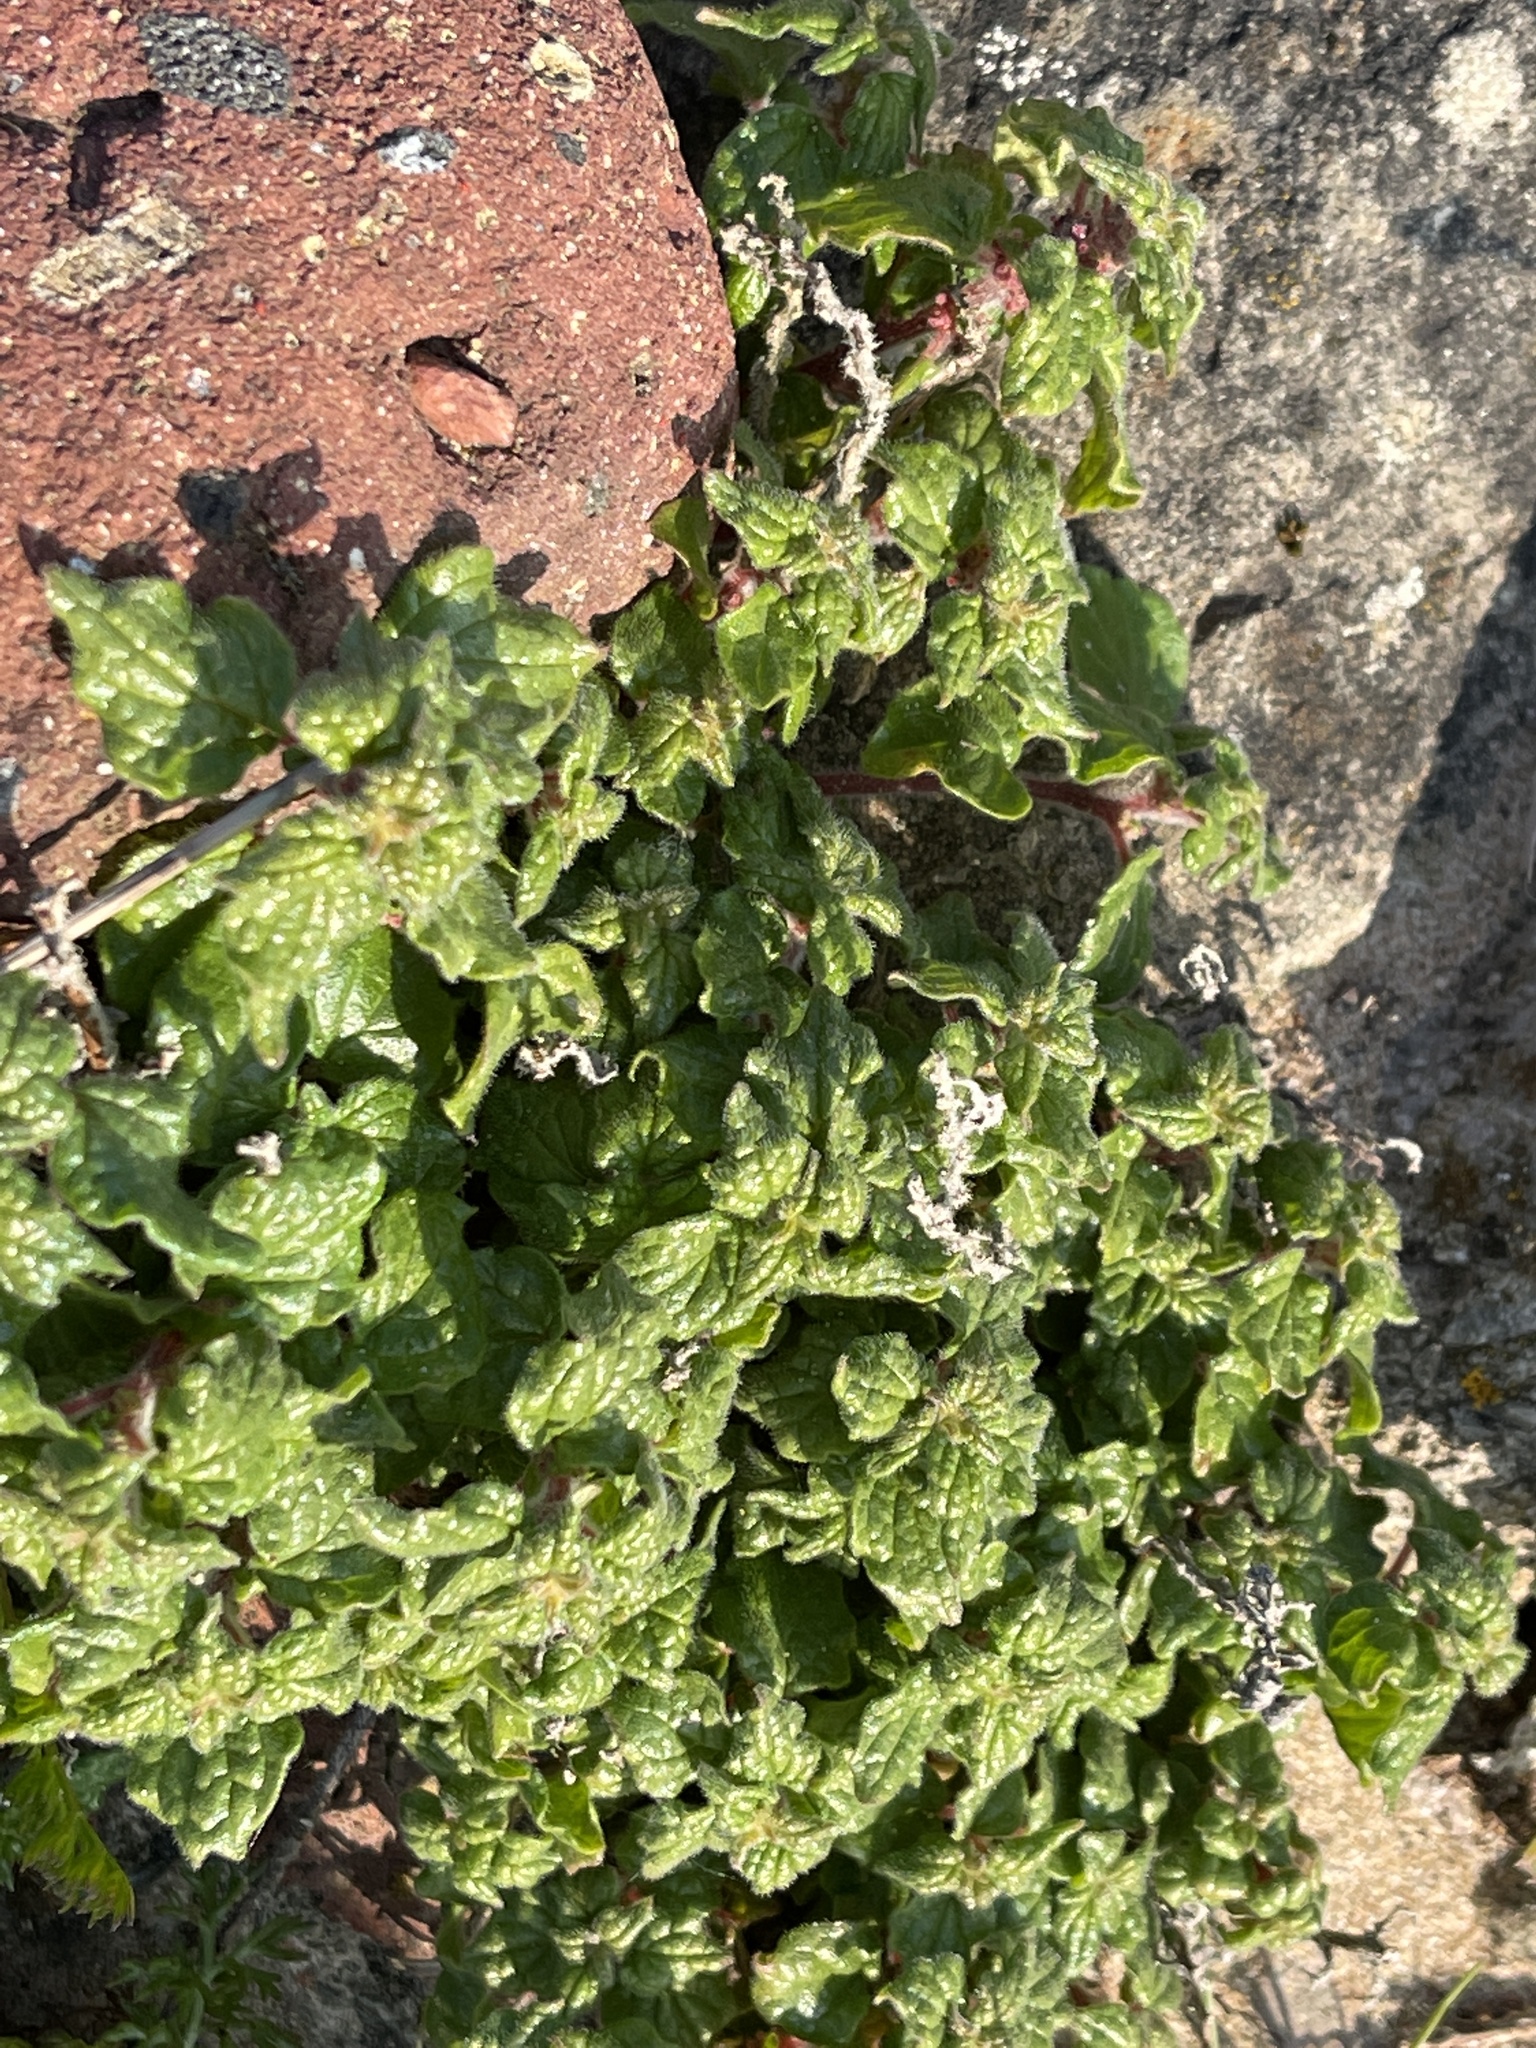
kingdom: Plantae
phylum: Tracheophyta
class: Magnoliopsida
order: Rosales
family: Urticaceae
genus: Parietaria
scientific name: Parietaria judaica
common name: Pellitory-of-the-wall
